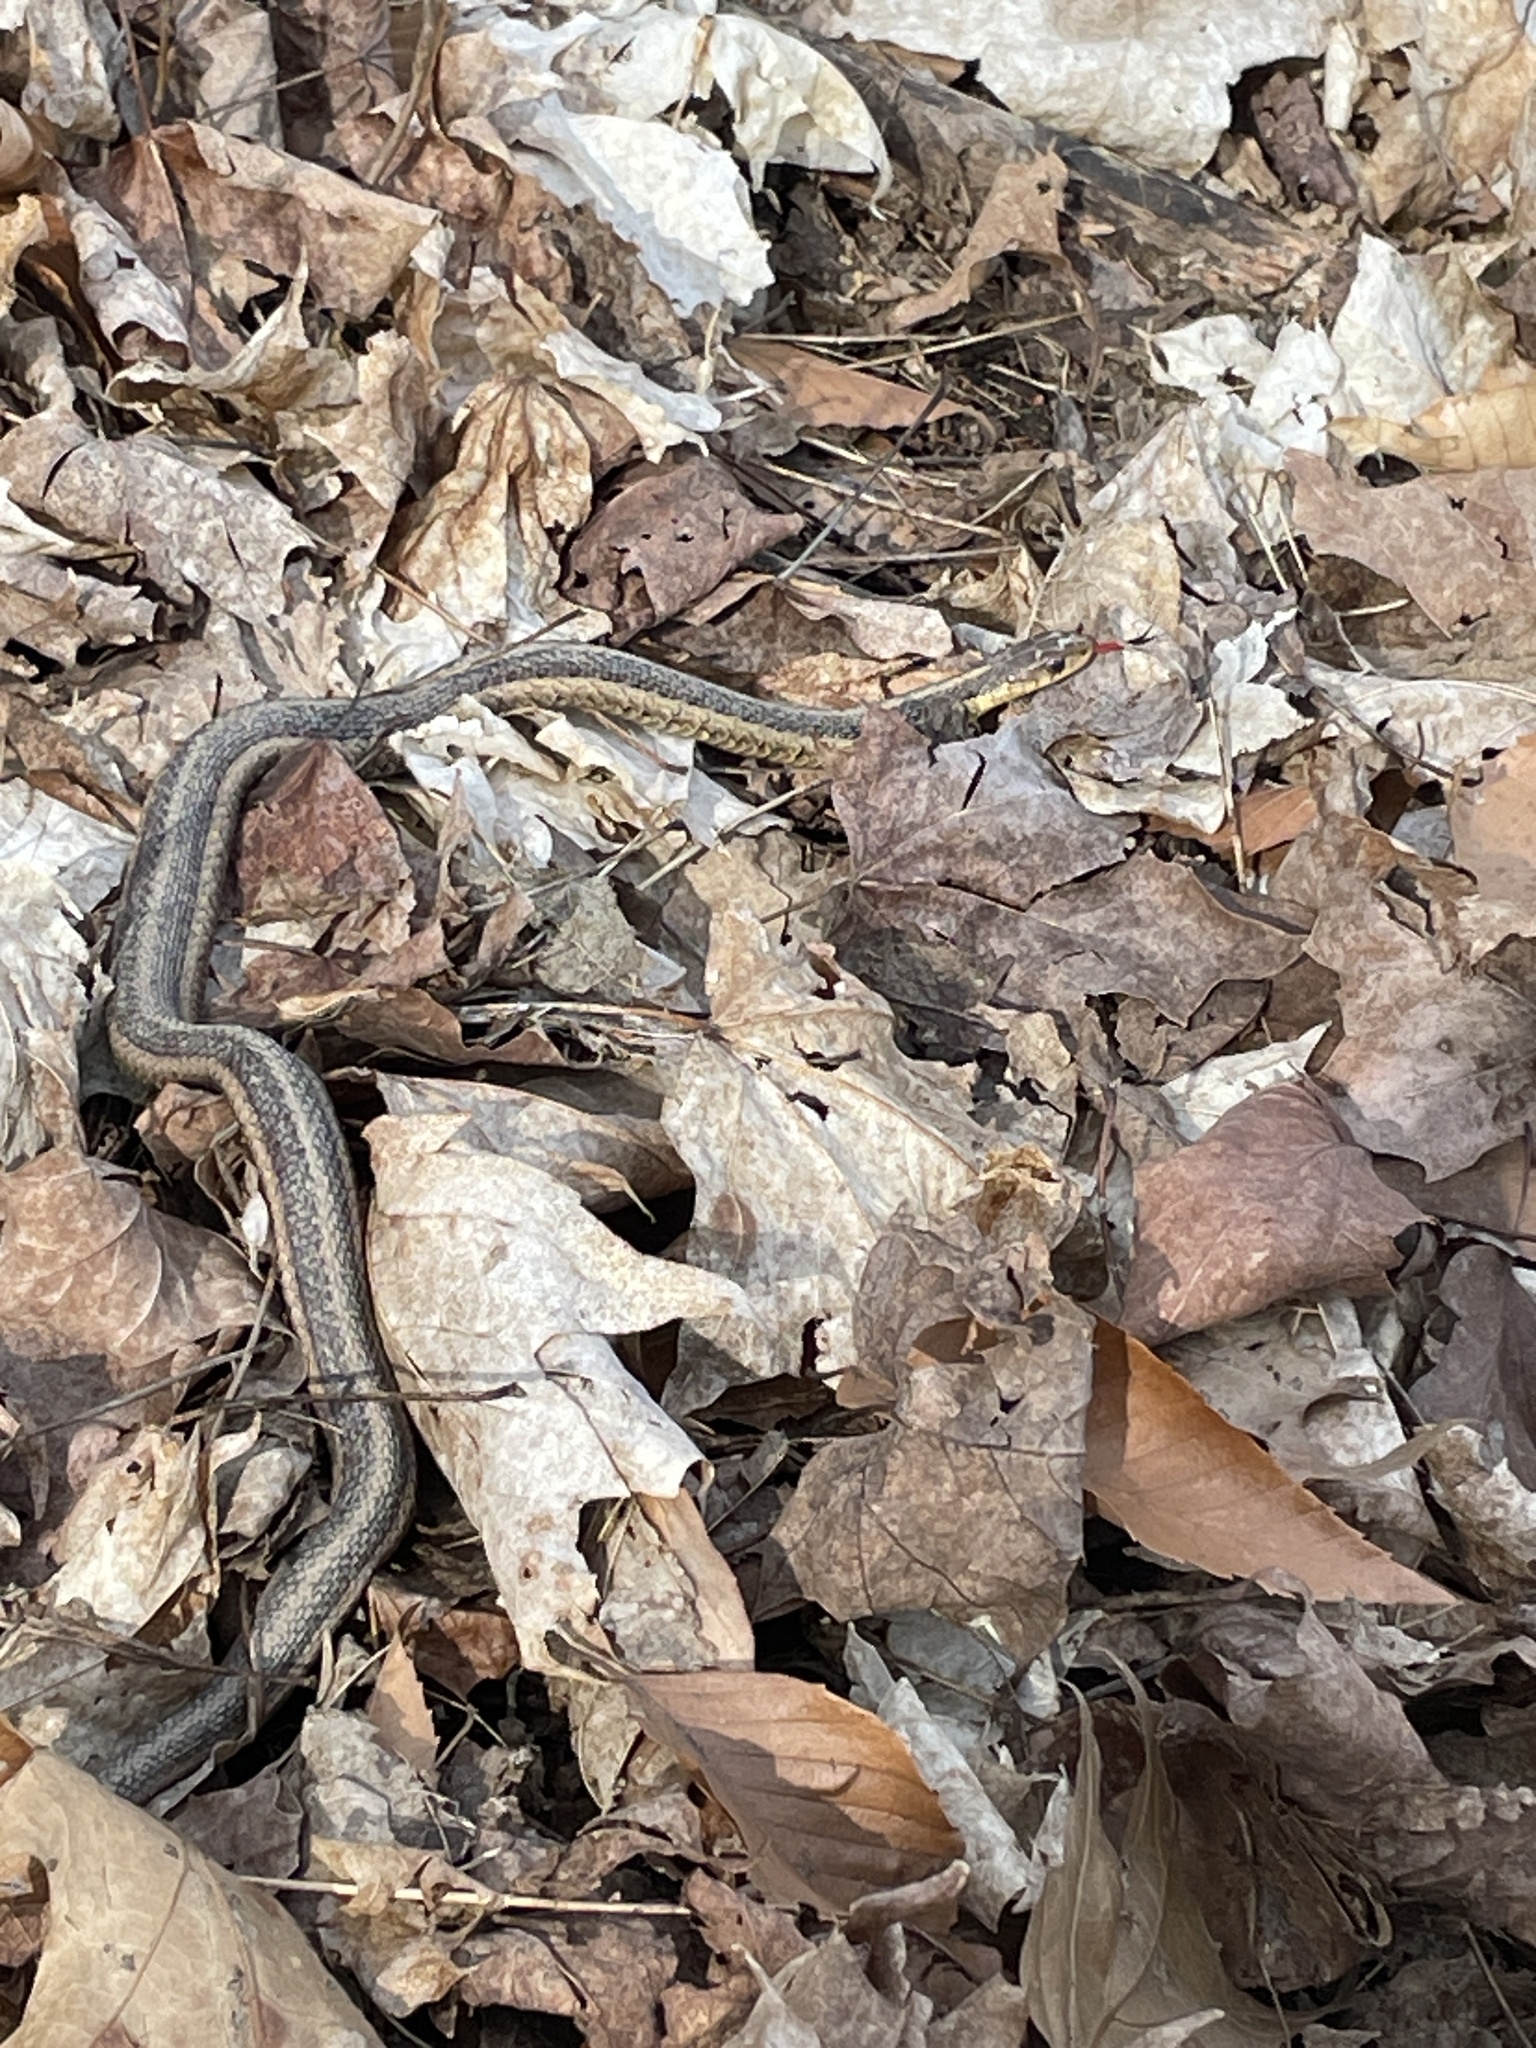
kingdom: Animalia
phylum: Chordata
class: Squamata
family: Colubridae
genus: Thamnophis
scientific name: Thamnophis sirtalis
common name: Common garter snake
